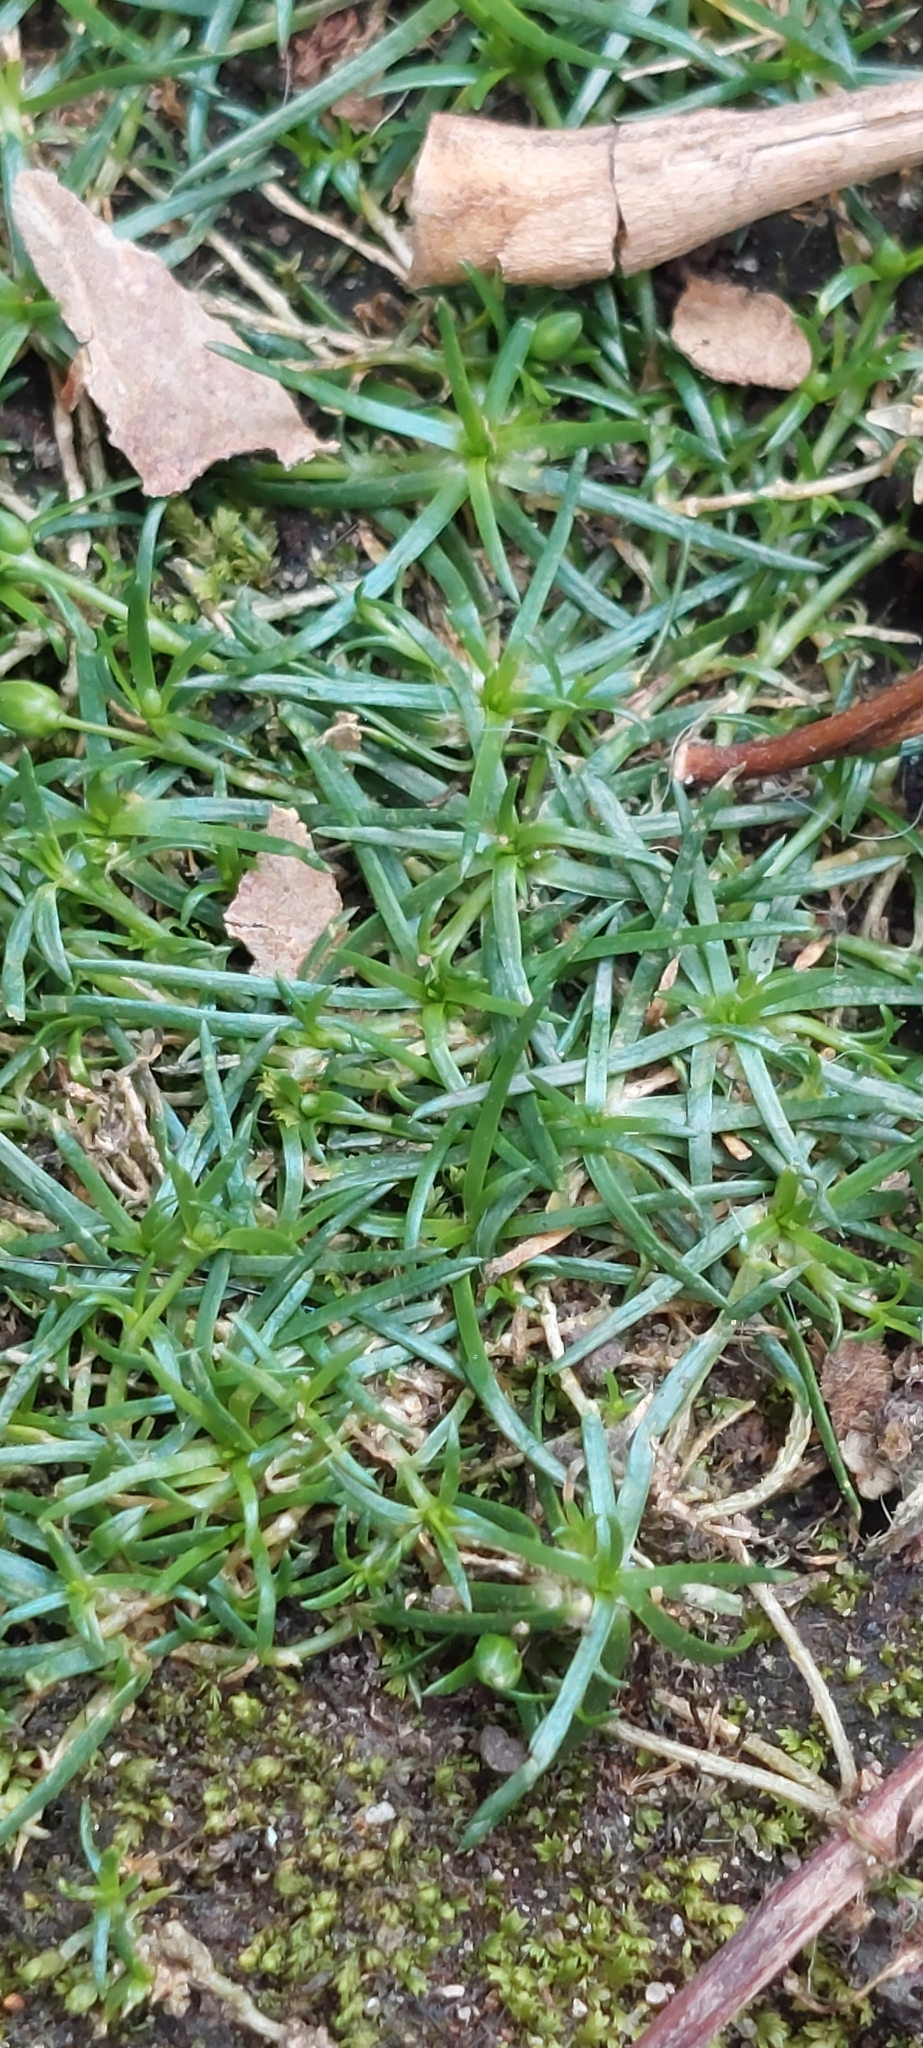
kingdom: Plantae
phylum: Tracheophyta
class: Magnoliopsida
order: Caryophyllales
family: Caryophyllaceae
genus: Sagina
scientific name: Sagina procumbens
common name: Procumbent pearlwort
